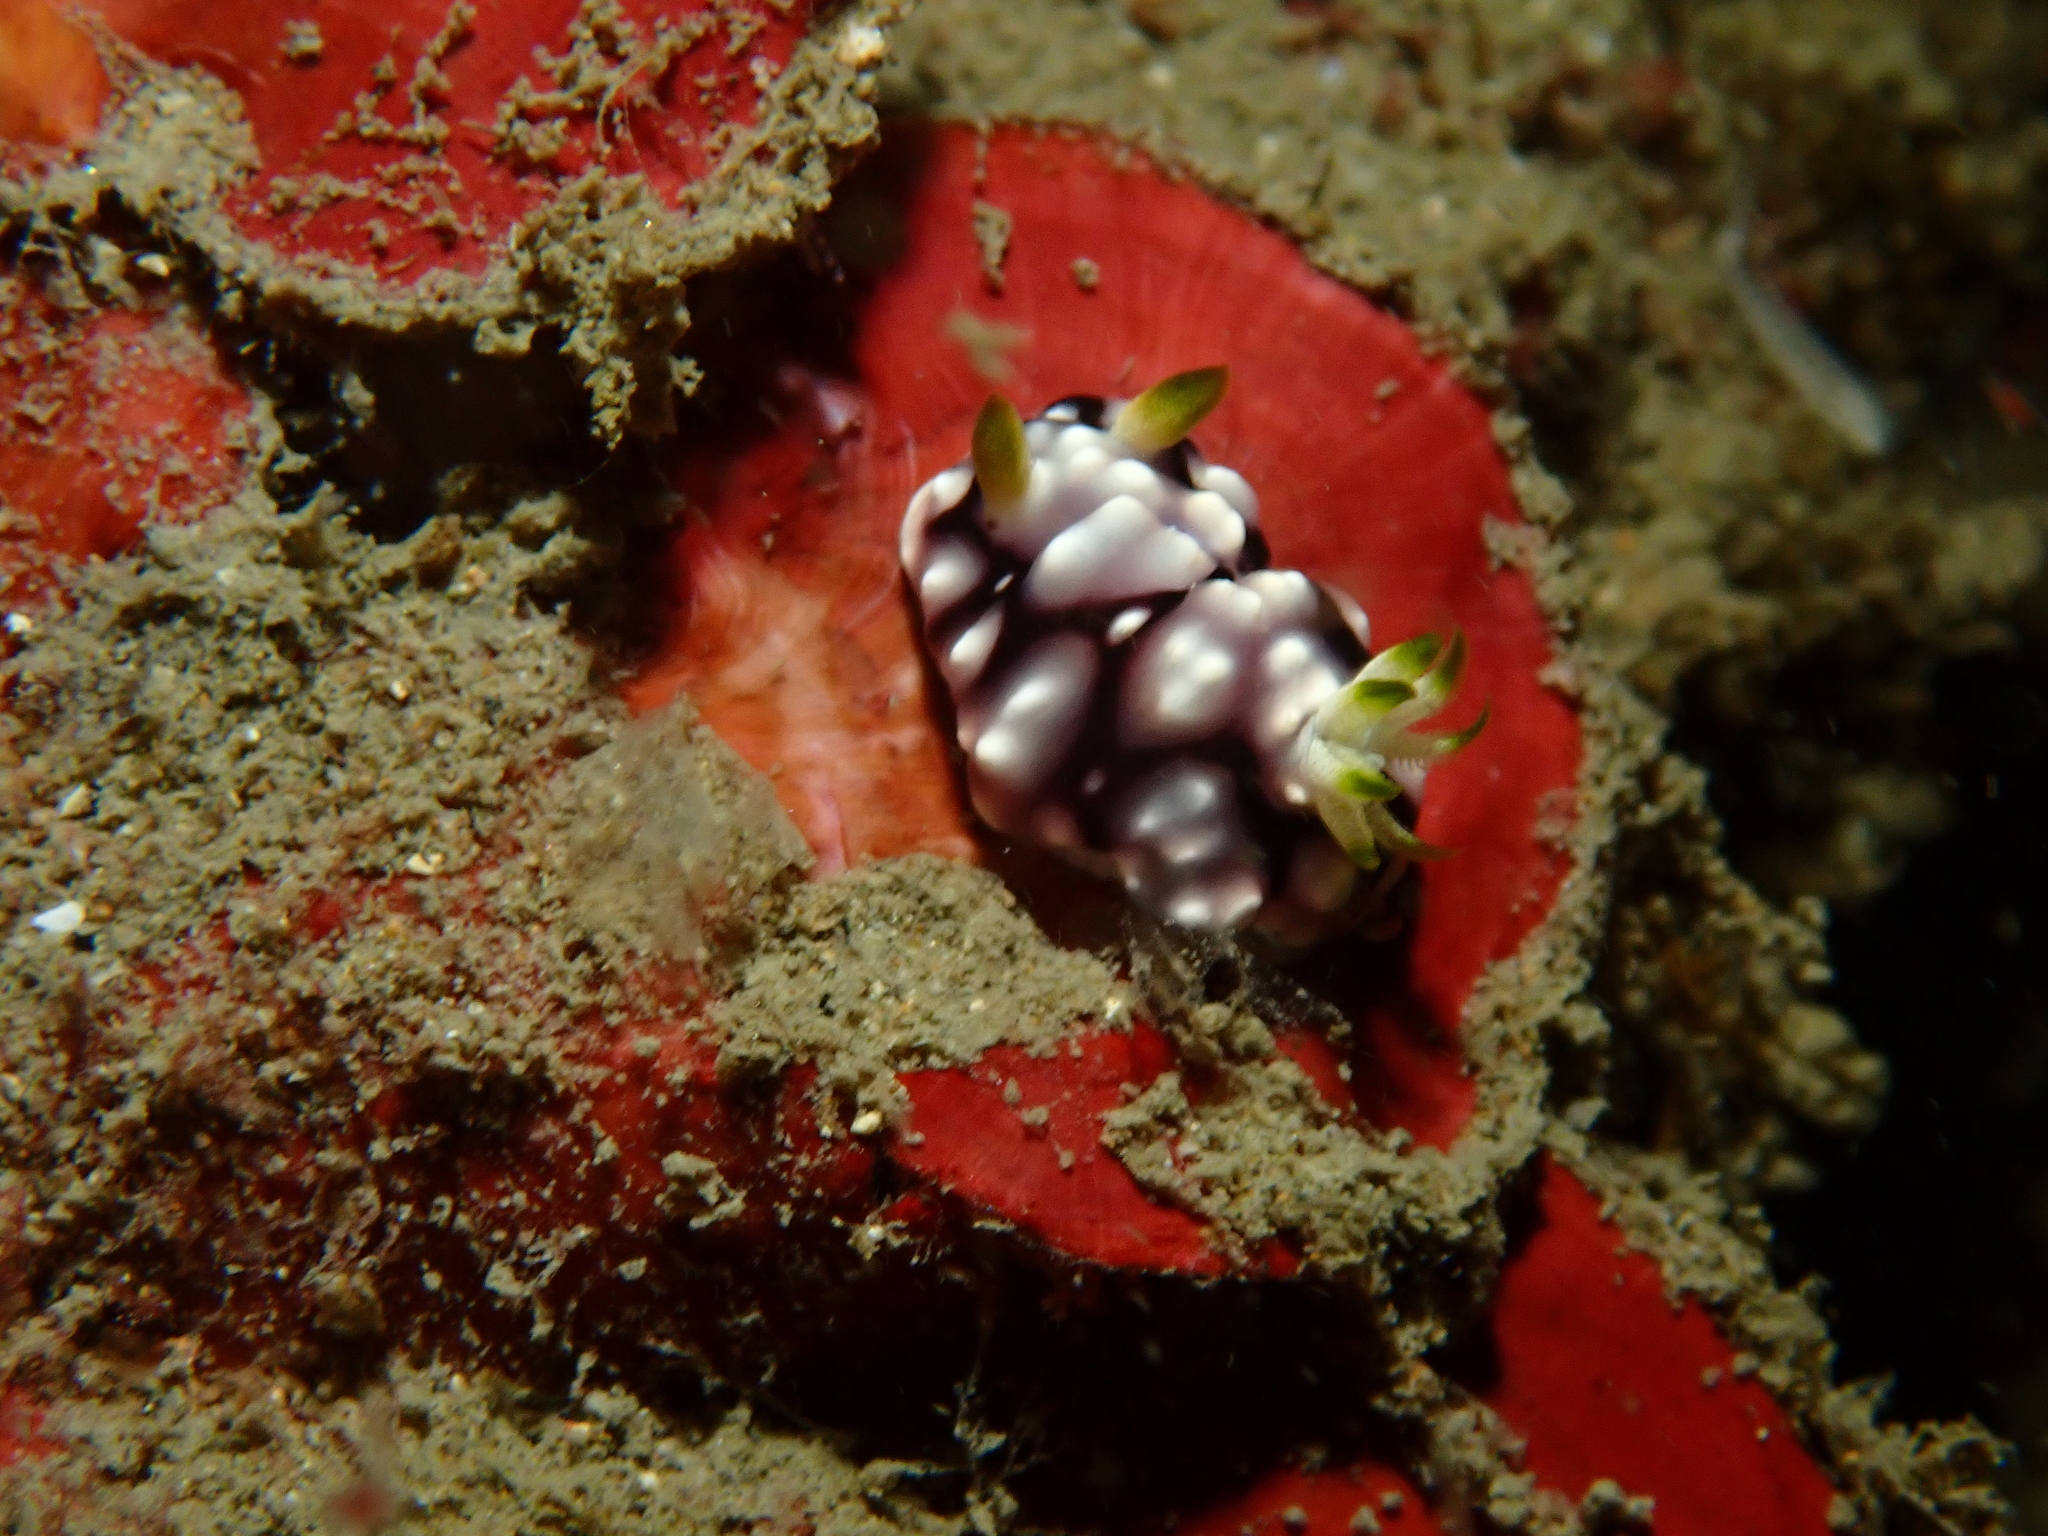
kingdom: Animalia
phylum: Mollusca
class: Gastropoda
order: Nudibranchia
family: Chromodorididae
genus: Goniobranchus
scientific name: Goniobranchus geometricus
